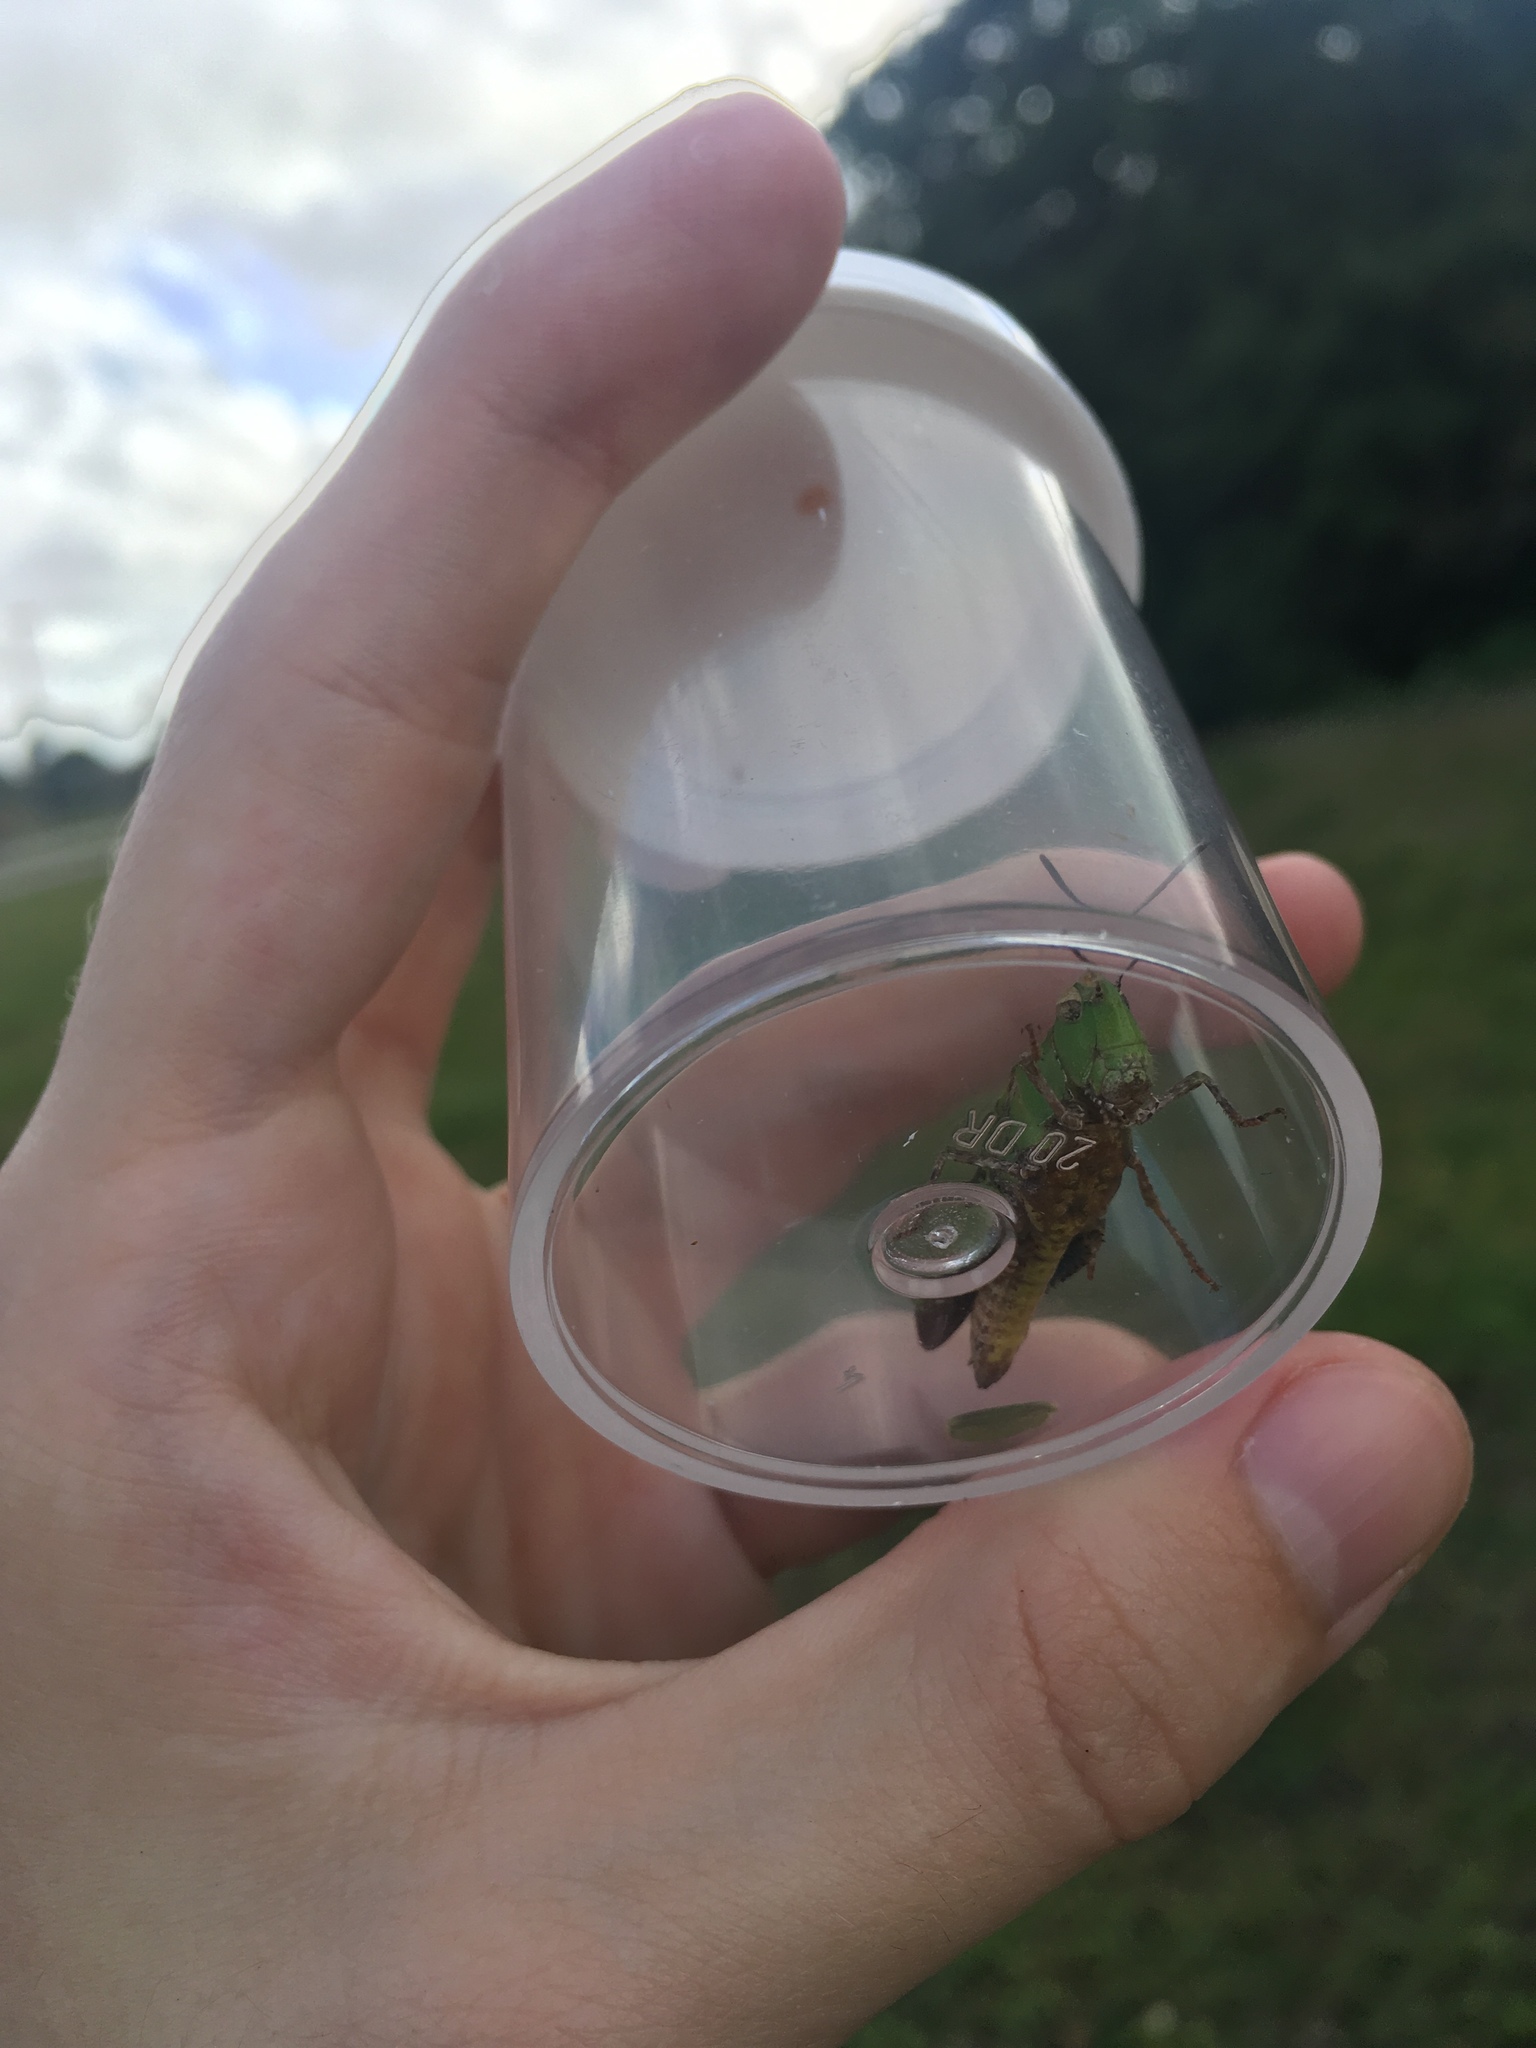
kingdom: Animalia
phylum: Arthropoda
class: Insecta
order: Orthoptera
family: Acrididae
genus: Chortophaga
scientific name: Chortophaga australior
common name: Southern green-striped grasshopper
